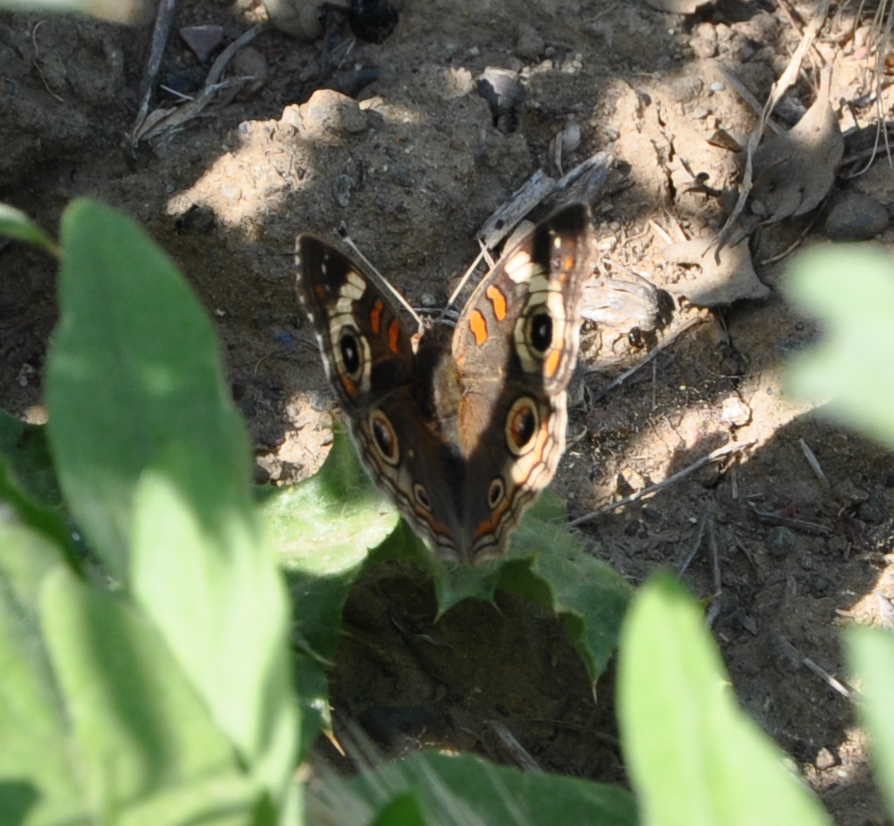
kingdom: Animalia
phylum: Arthropoda
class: Insecta
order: Lepidoptera
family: Nymphalidae
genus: Junonia
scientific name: Junonia grisea
